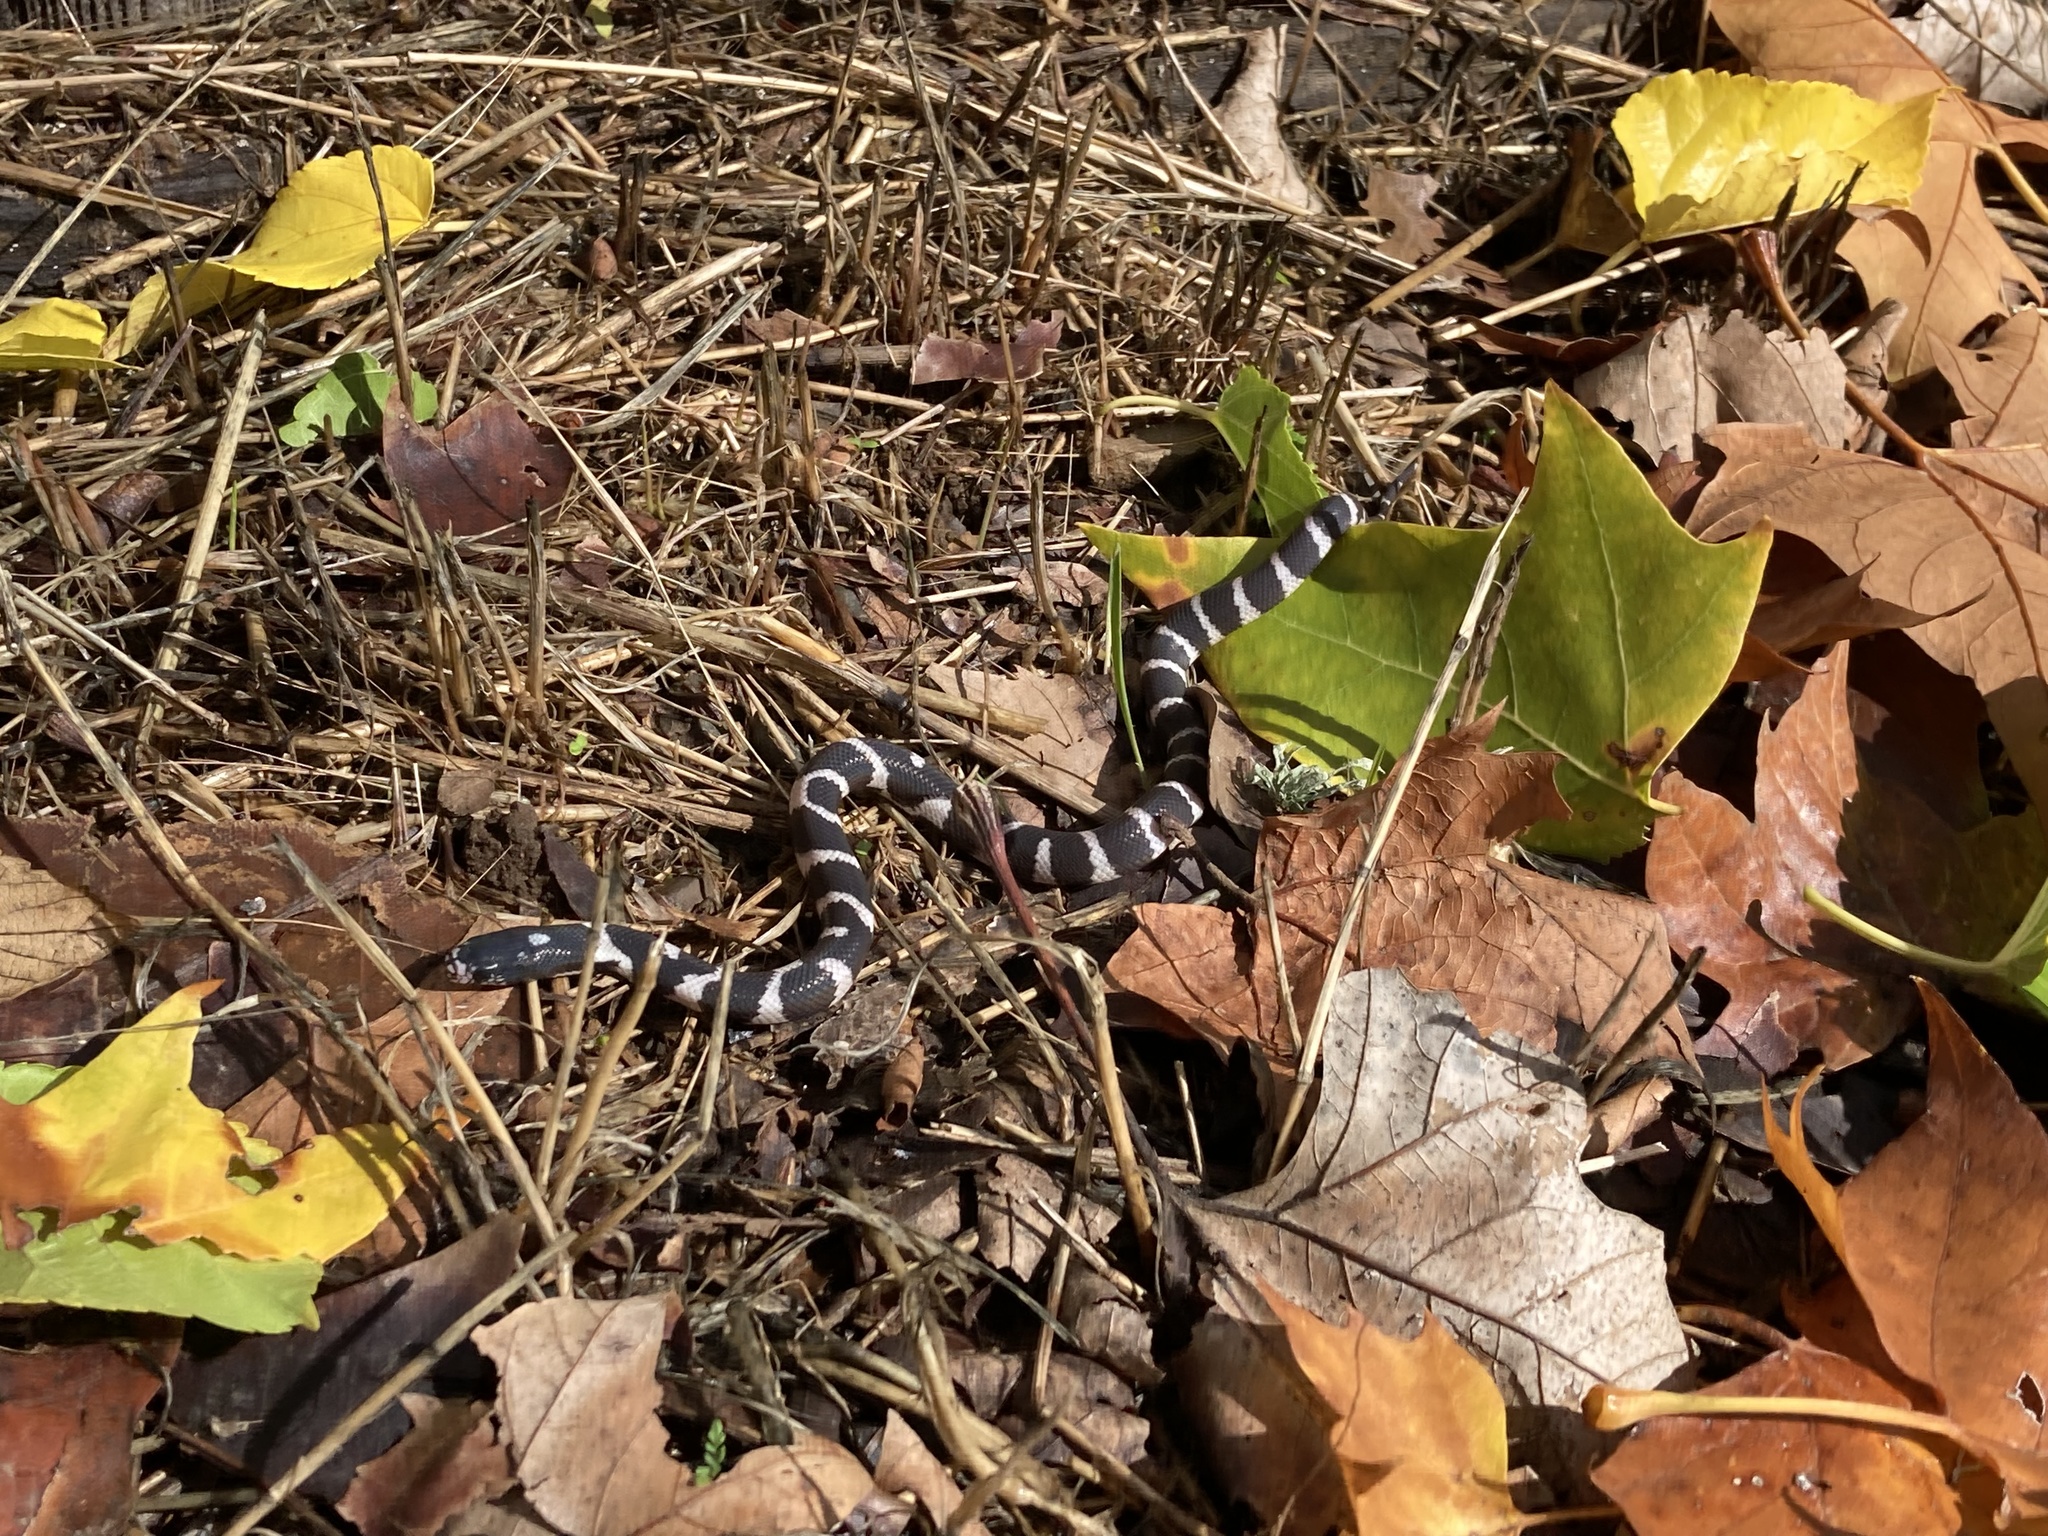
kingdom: Animalia
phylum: Chordata
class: Squamata
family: Colubridae
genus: Lampropeltis
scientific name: Lampropeltis californiae
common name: California kingsnake
